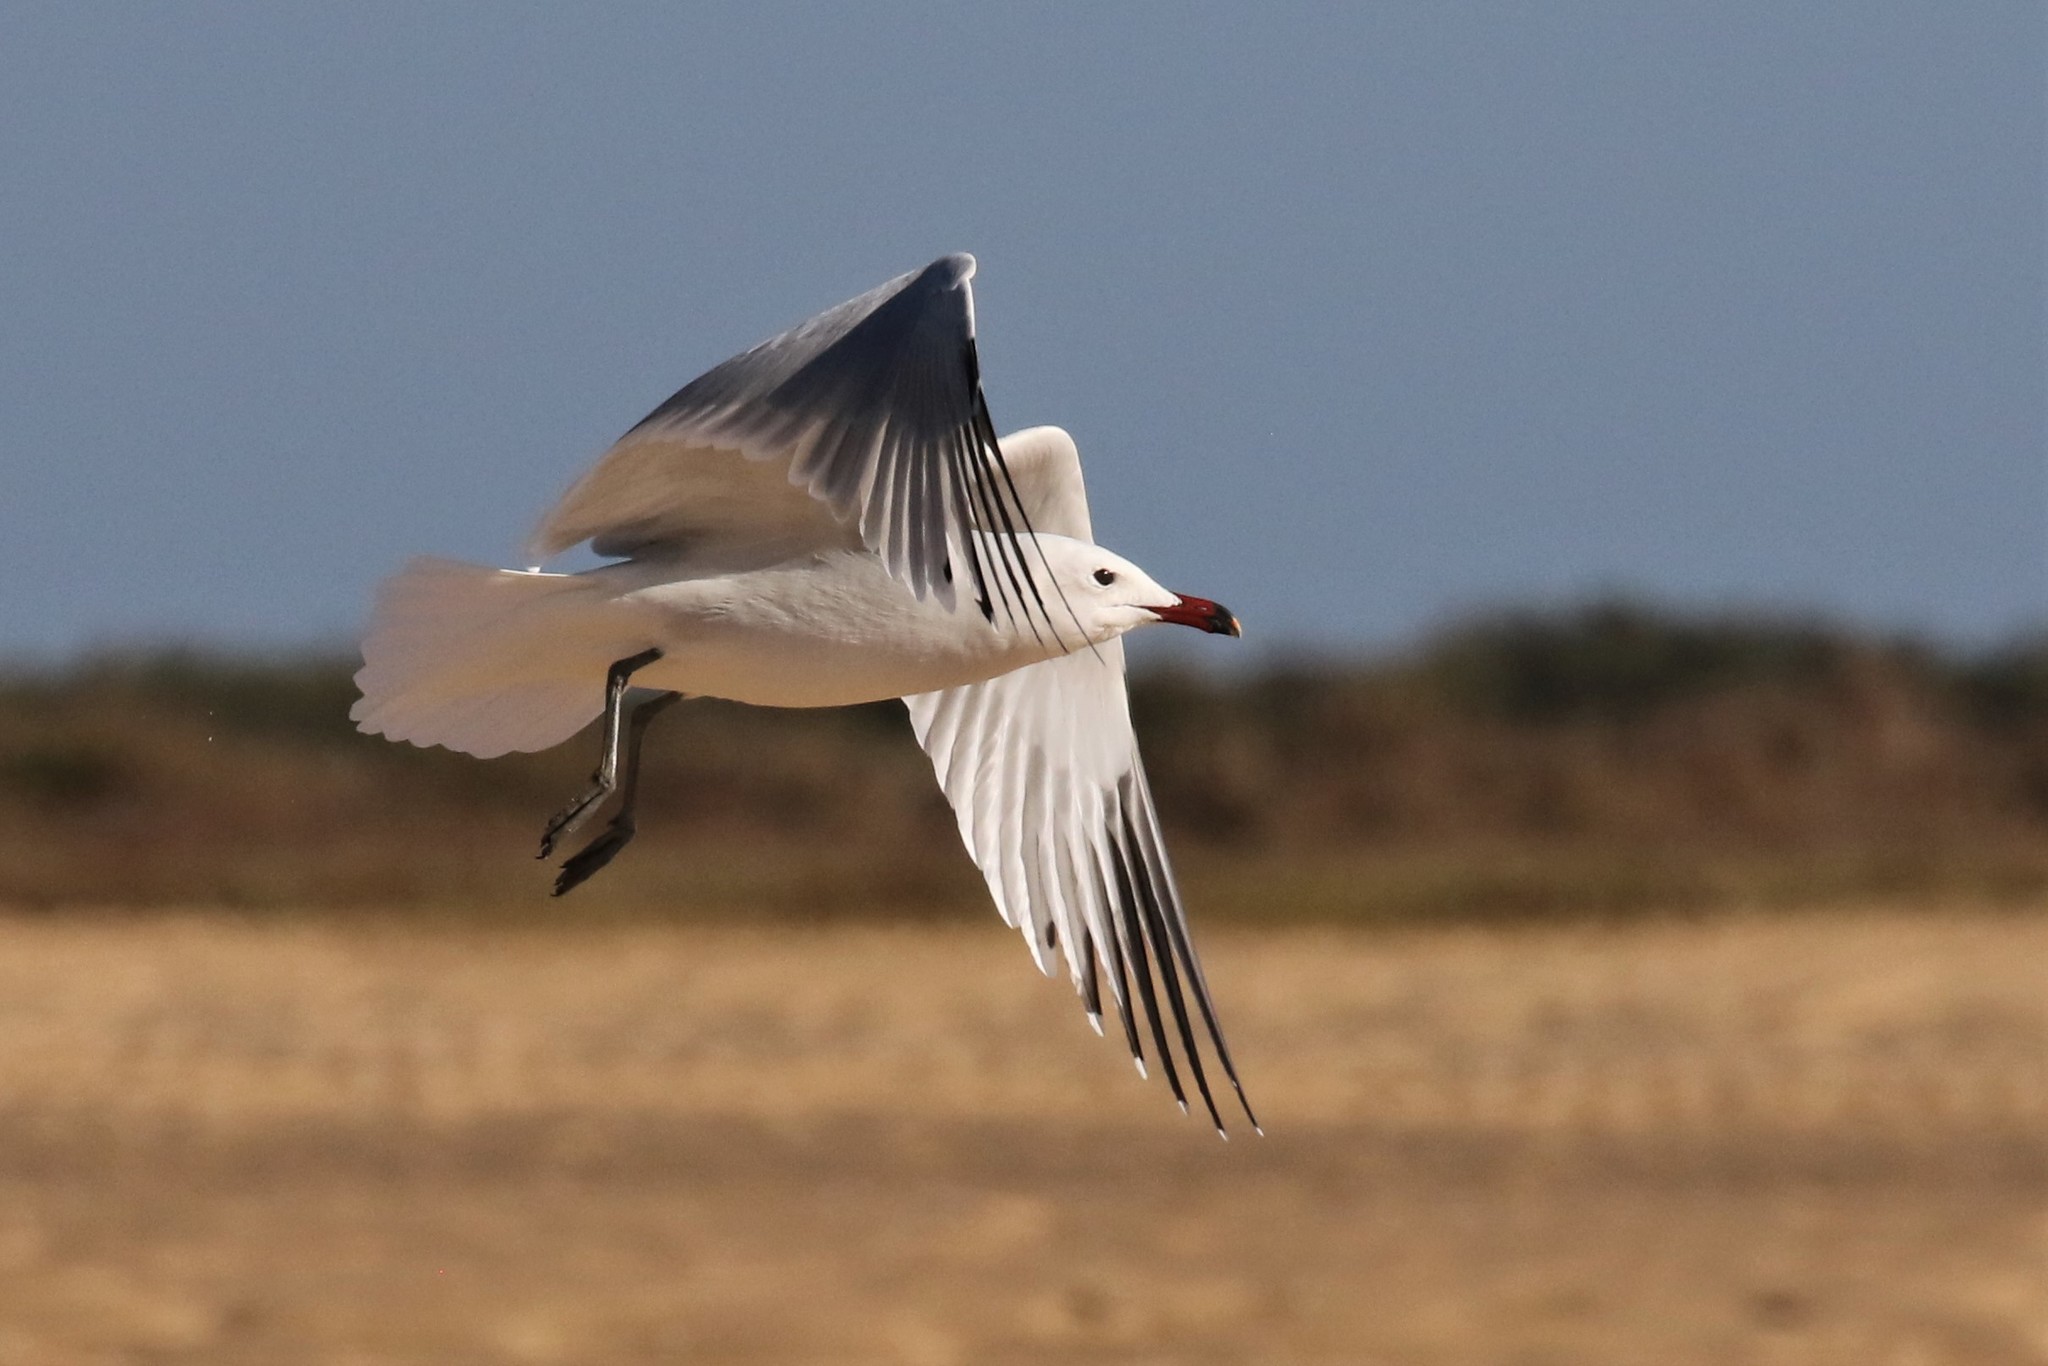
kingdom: Animalia
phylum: Chordata
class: Aves
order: Charadriiformes
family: Laridae
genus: Ichthyaetus
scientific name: Ichthyaetus audouinii
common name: Audouin's gull
